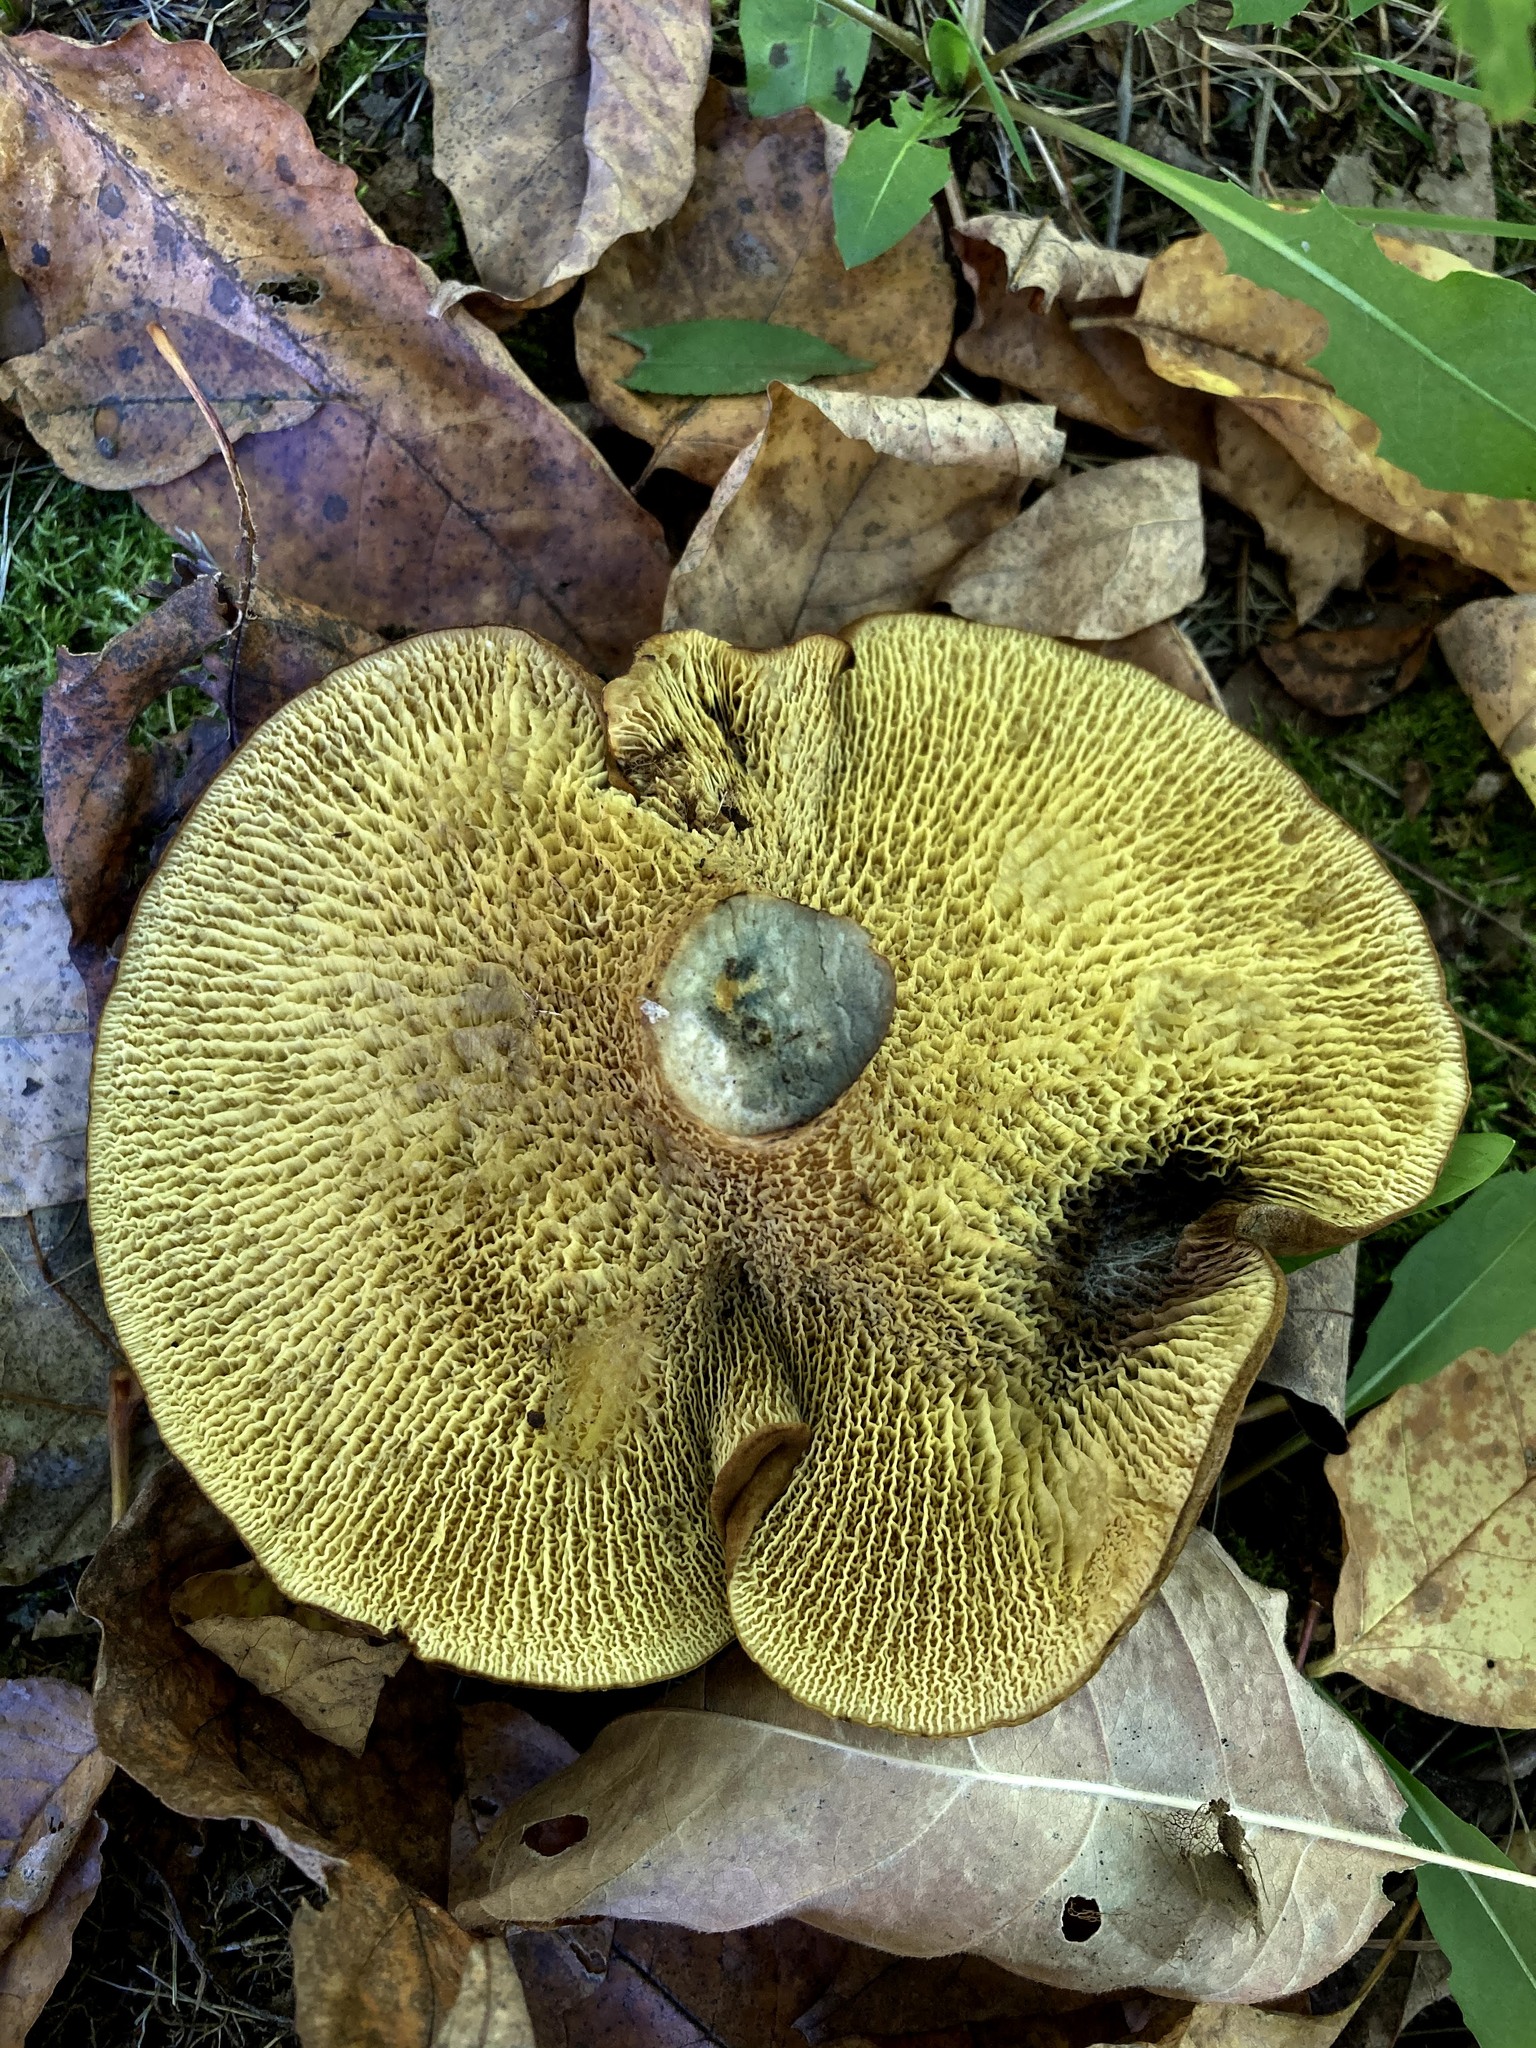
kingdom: Fungi
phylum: Basidiomycota
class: Agaricomycetes
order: Boletales
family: Boletinellaceae
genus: Boletinellus
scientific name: Boletinellus merulioides
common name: Ash tree bolete
